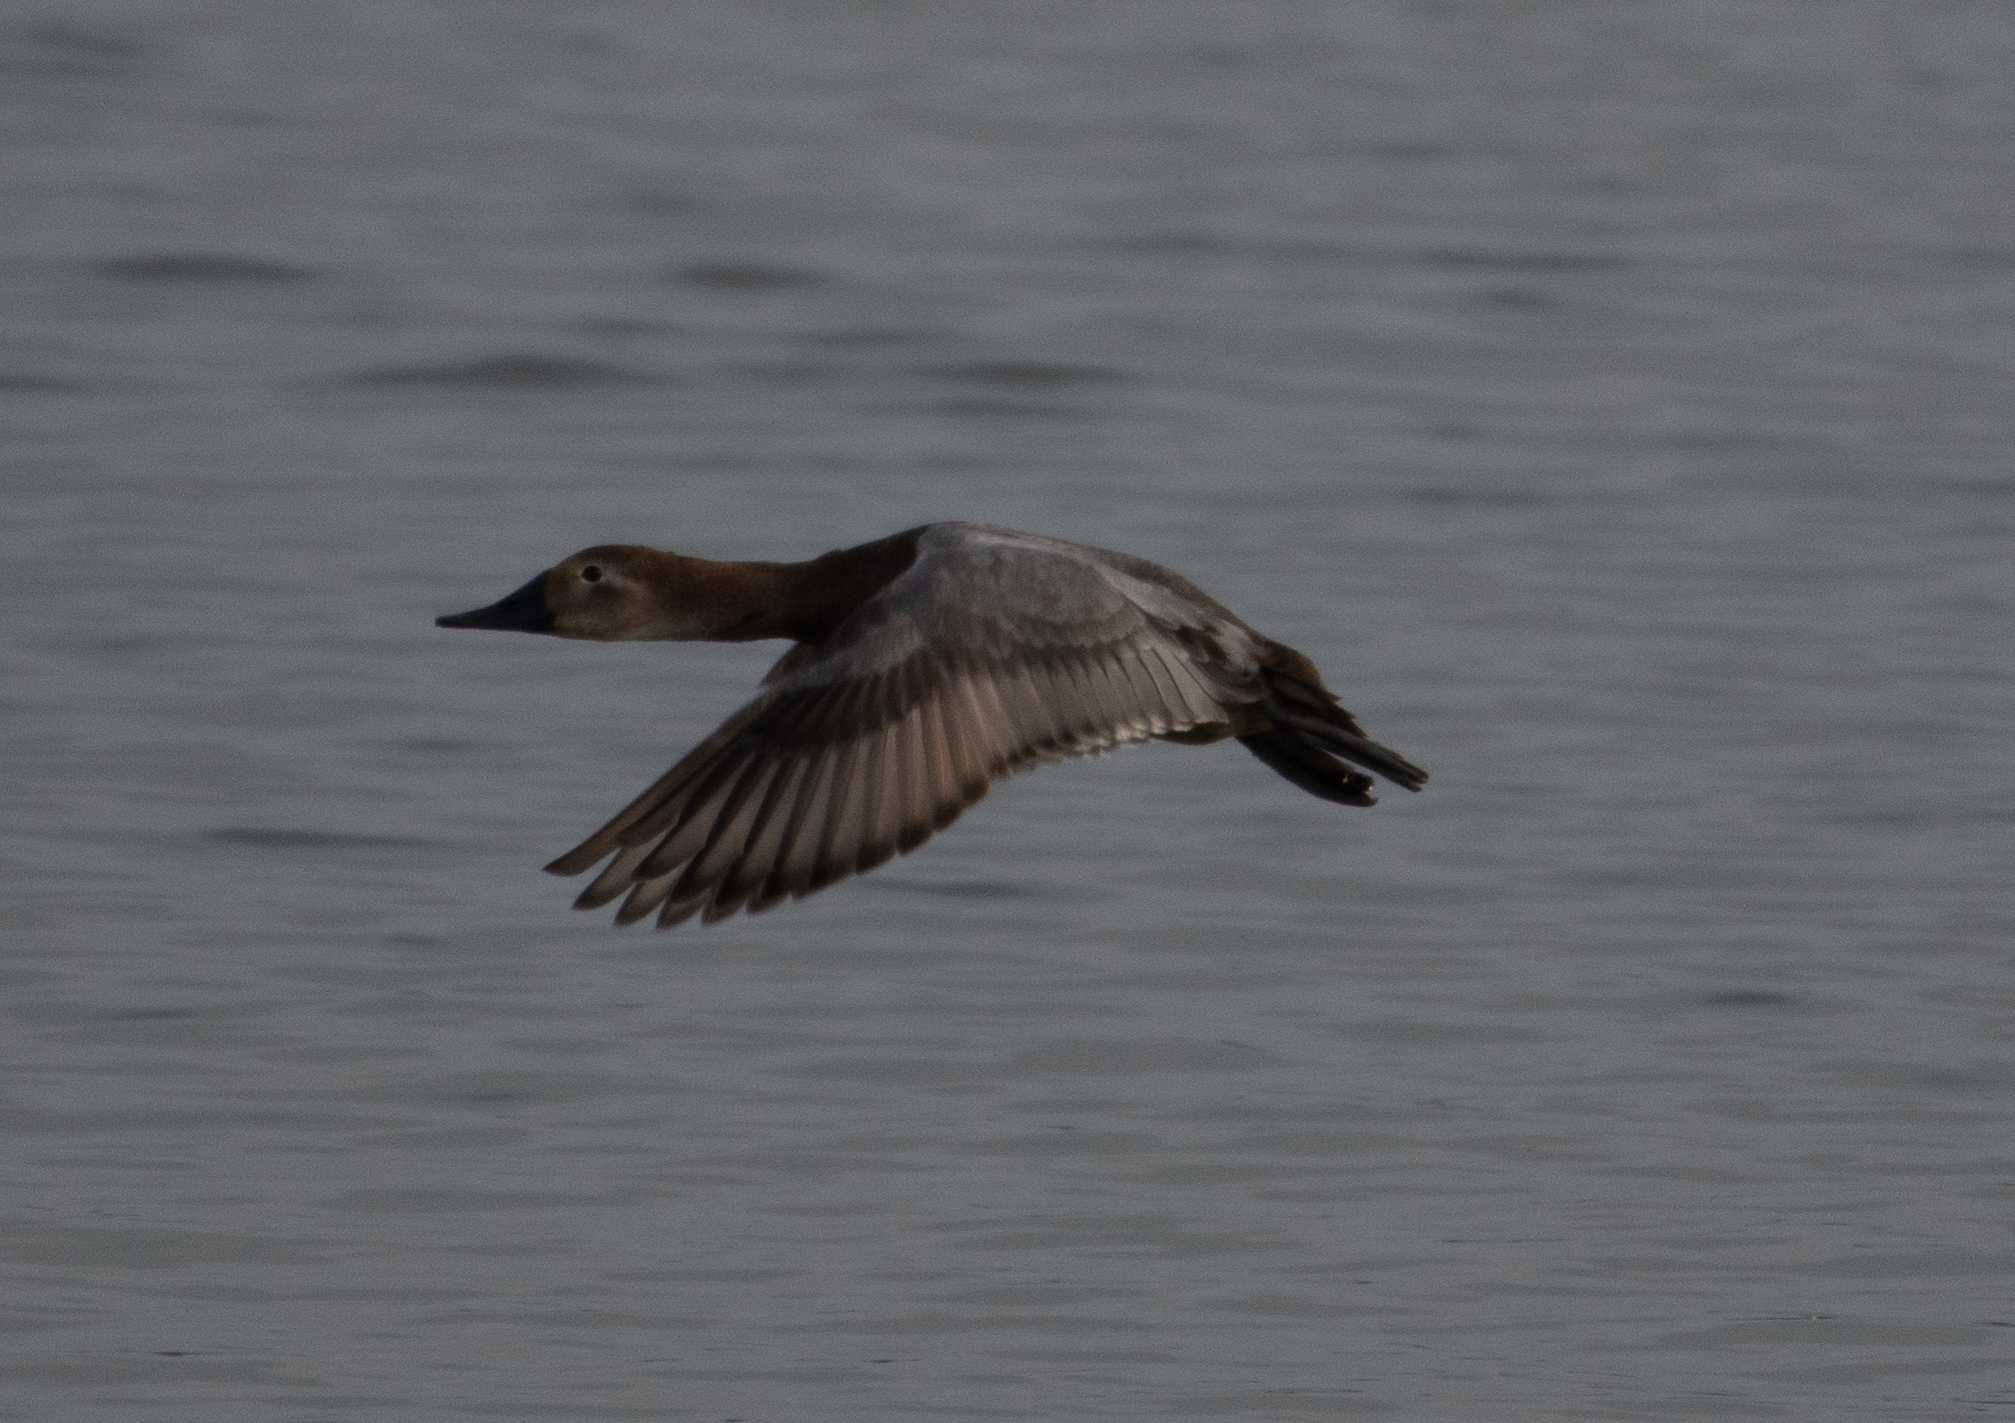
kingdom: Animalia
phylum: Chordata
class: Aves
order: Anseriformes
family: Anatidae
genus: Aythya
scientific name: Aythya valisineria
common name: Canvasback
